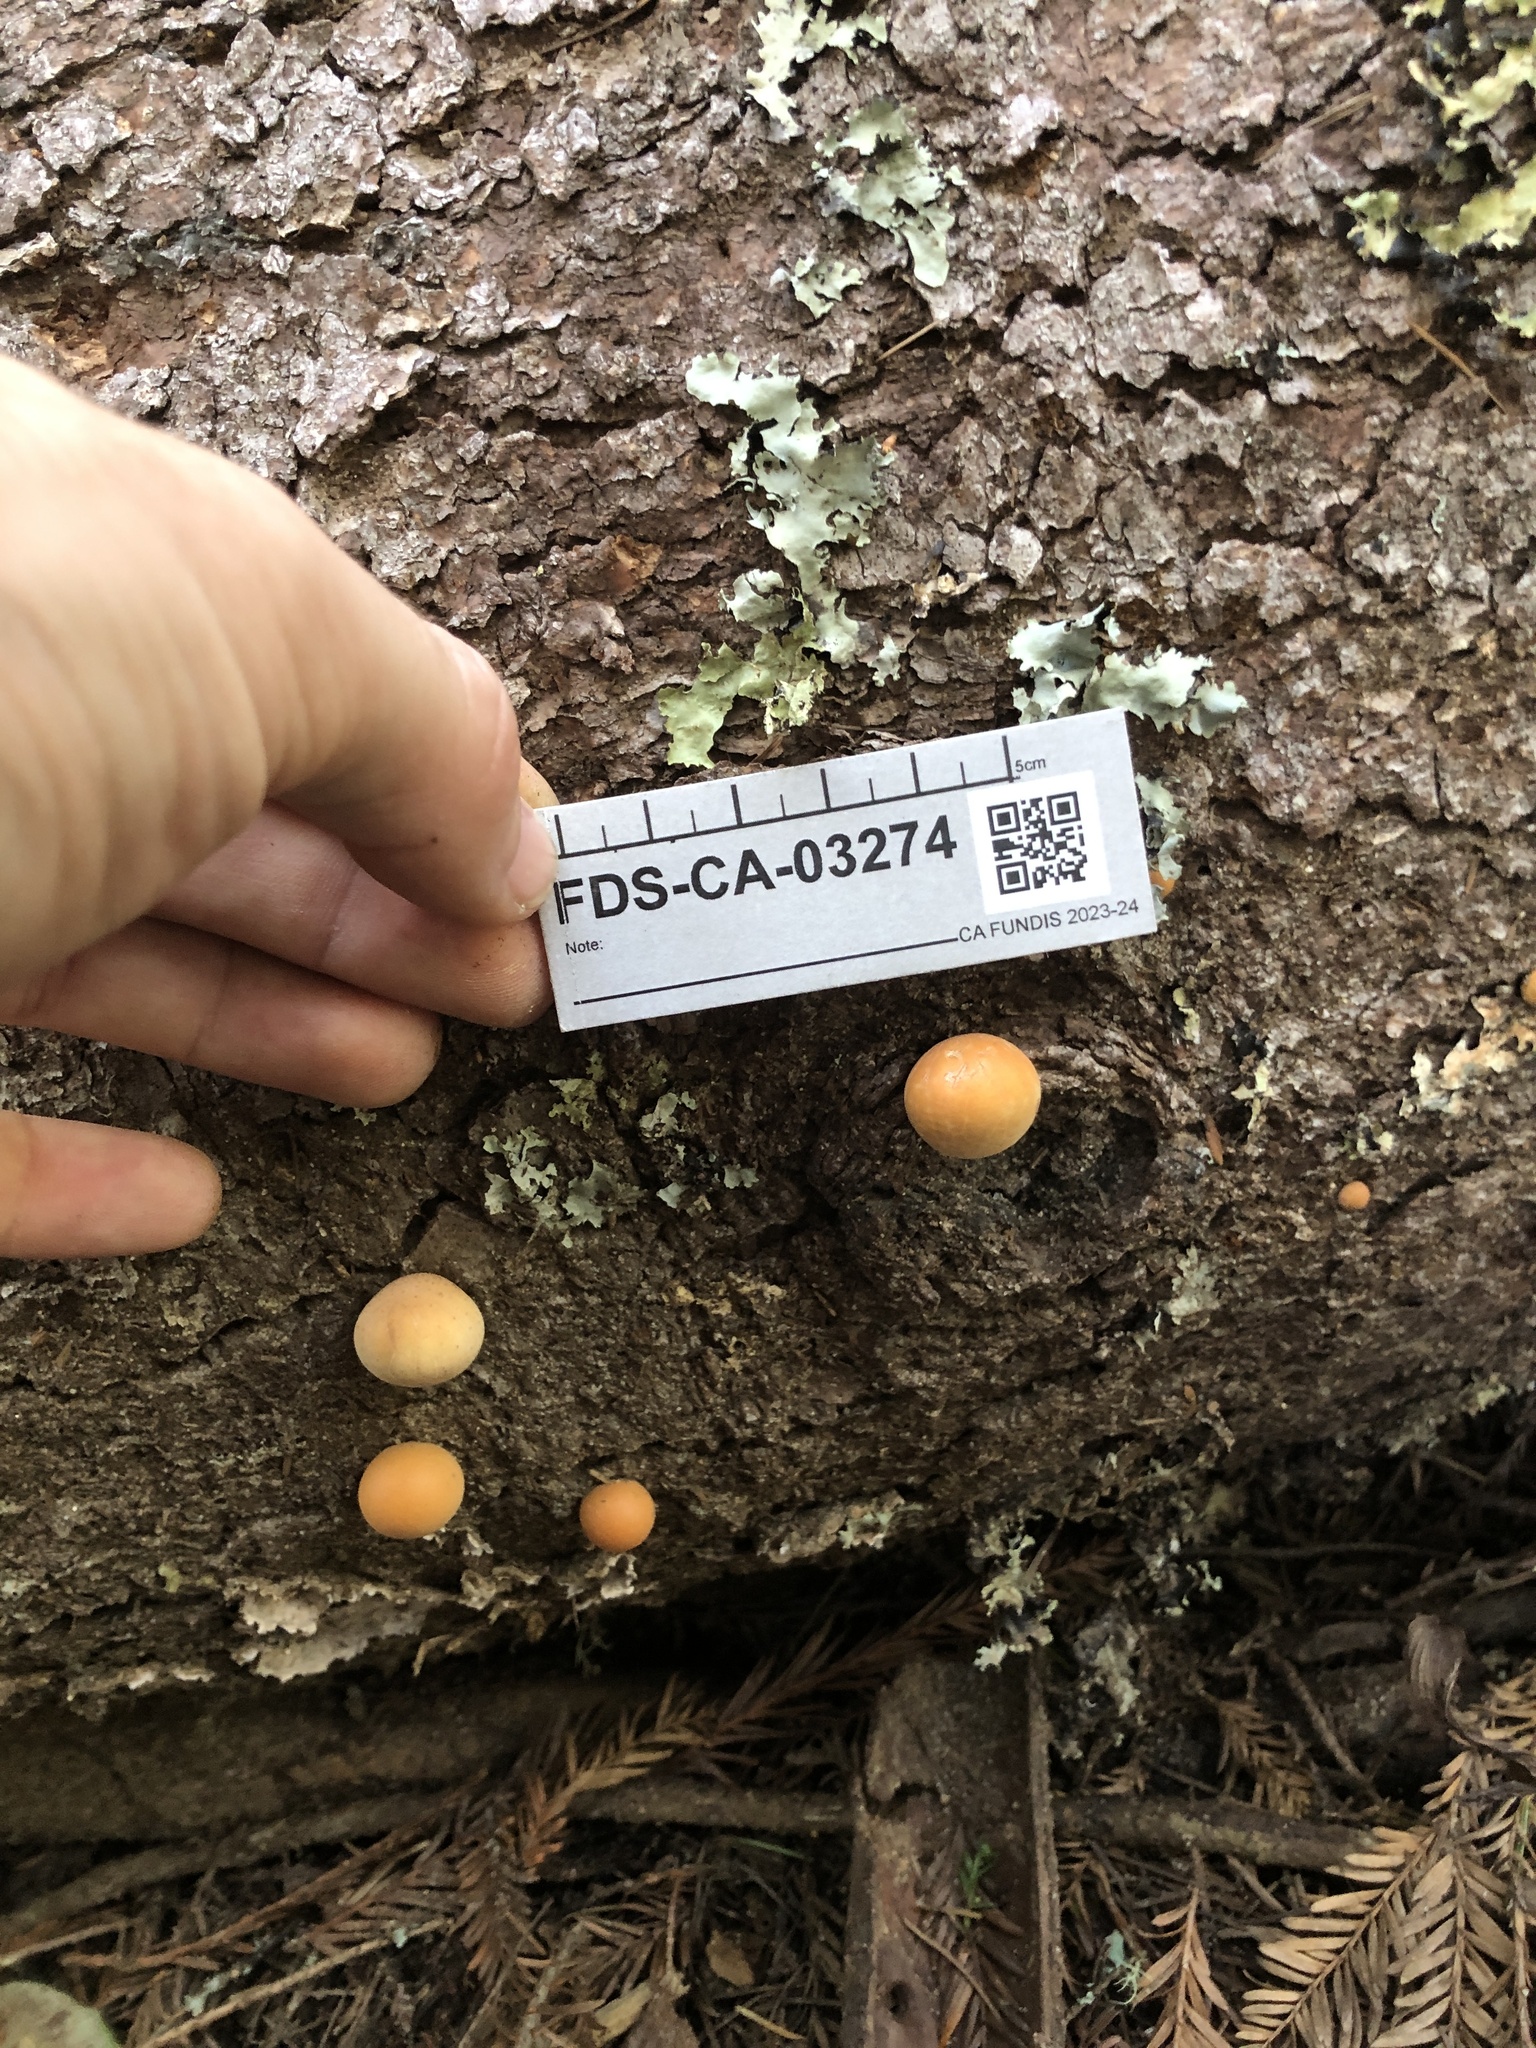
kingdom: Fungi
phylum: Basidiomycota
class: Agaricomycetes
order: Polyporales
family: Polyporaceae
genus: Cryptoporus
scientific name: Cryptoporus volvatus
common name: Veiled polypore
